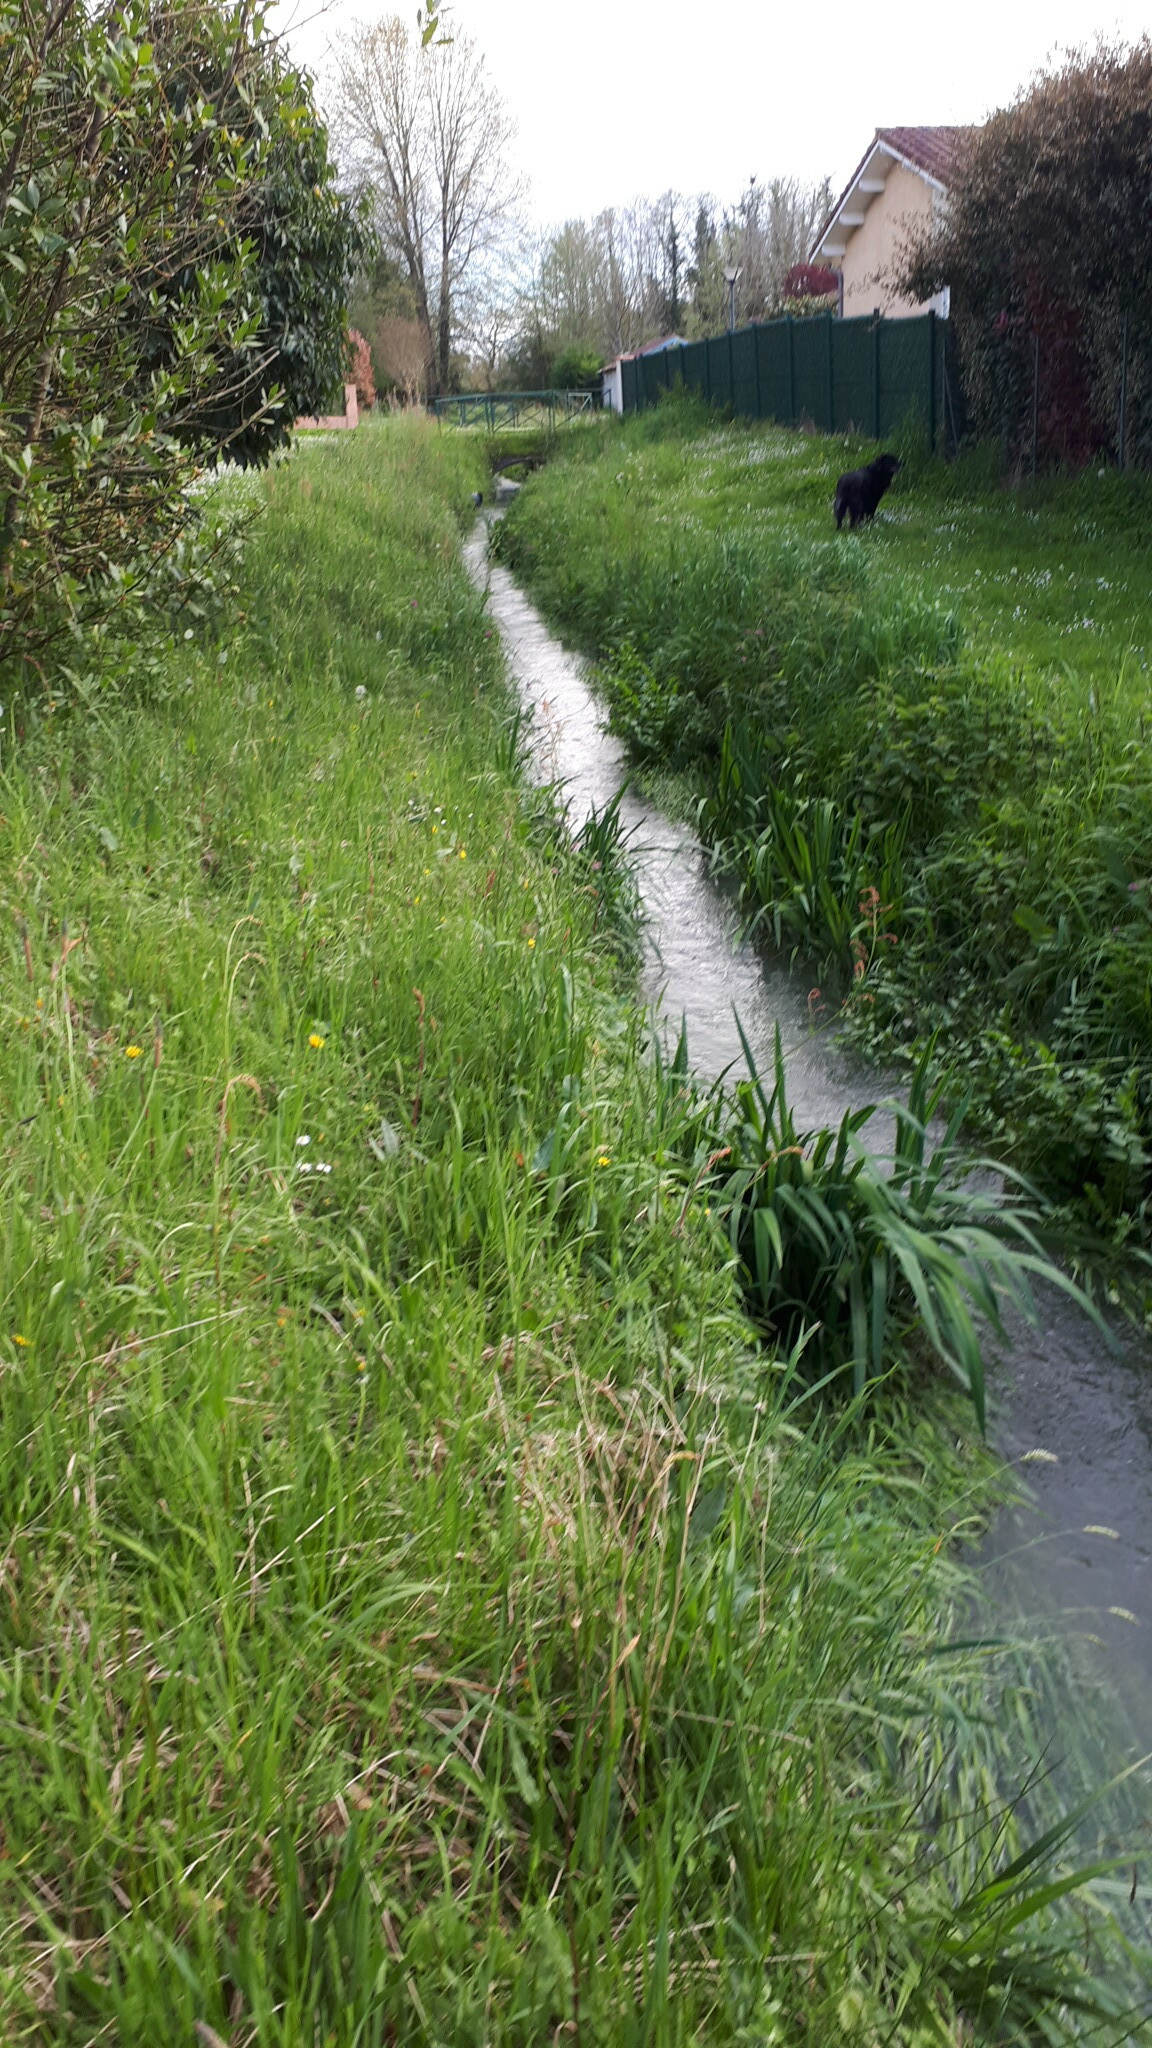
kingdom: Plantae
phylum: Tracheophyta
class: Liliopsida
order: Asparagales
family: Iridaceae
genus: Iris
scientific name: Iris pseudacorus
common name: Yellow flag
